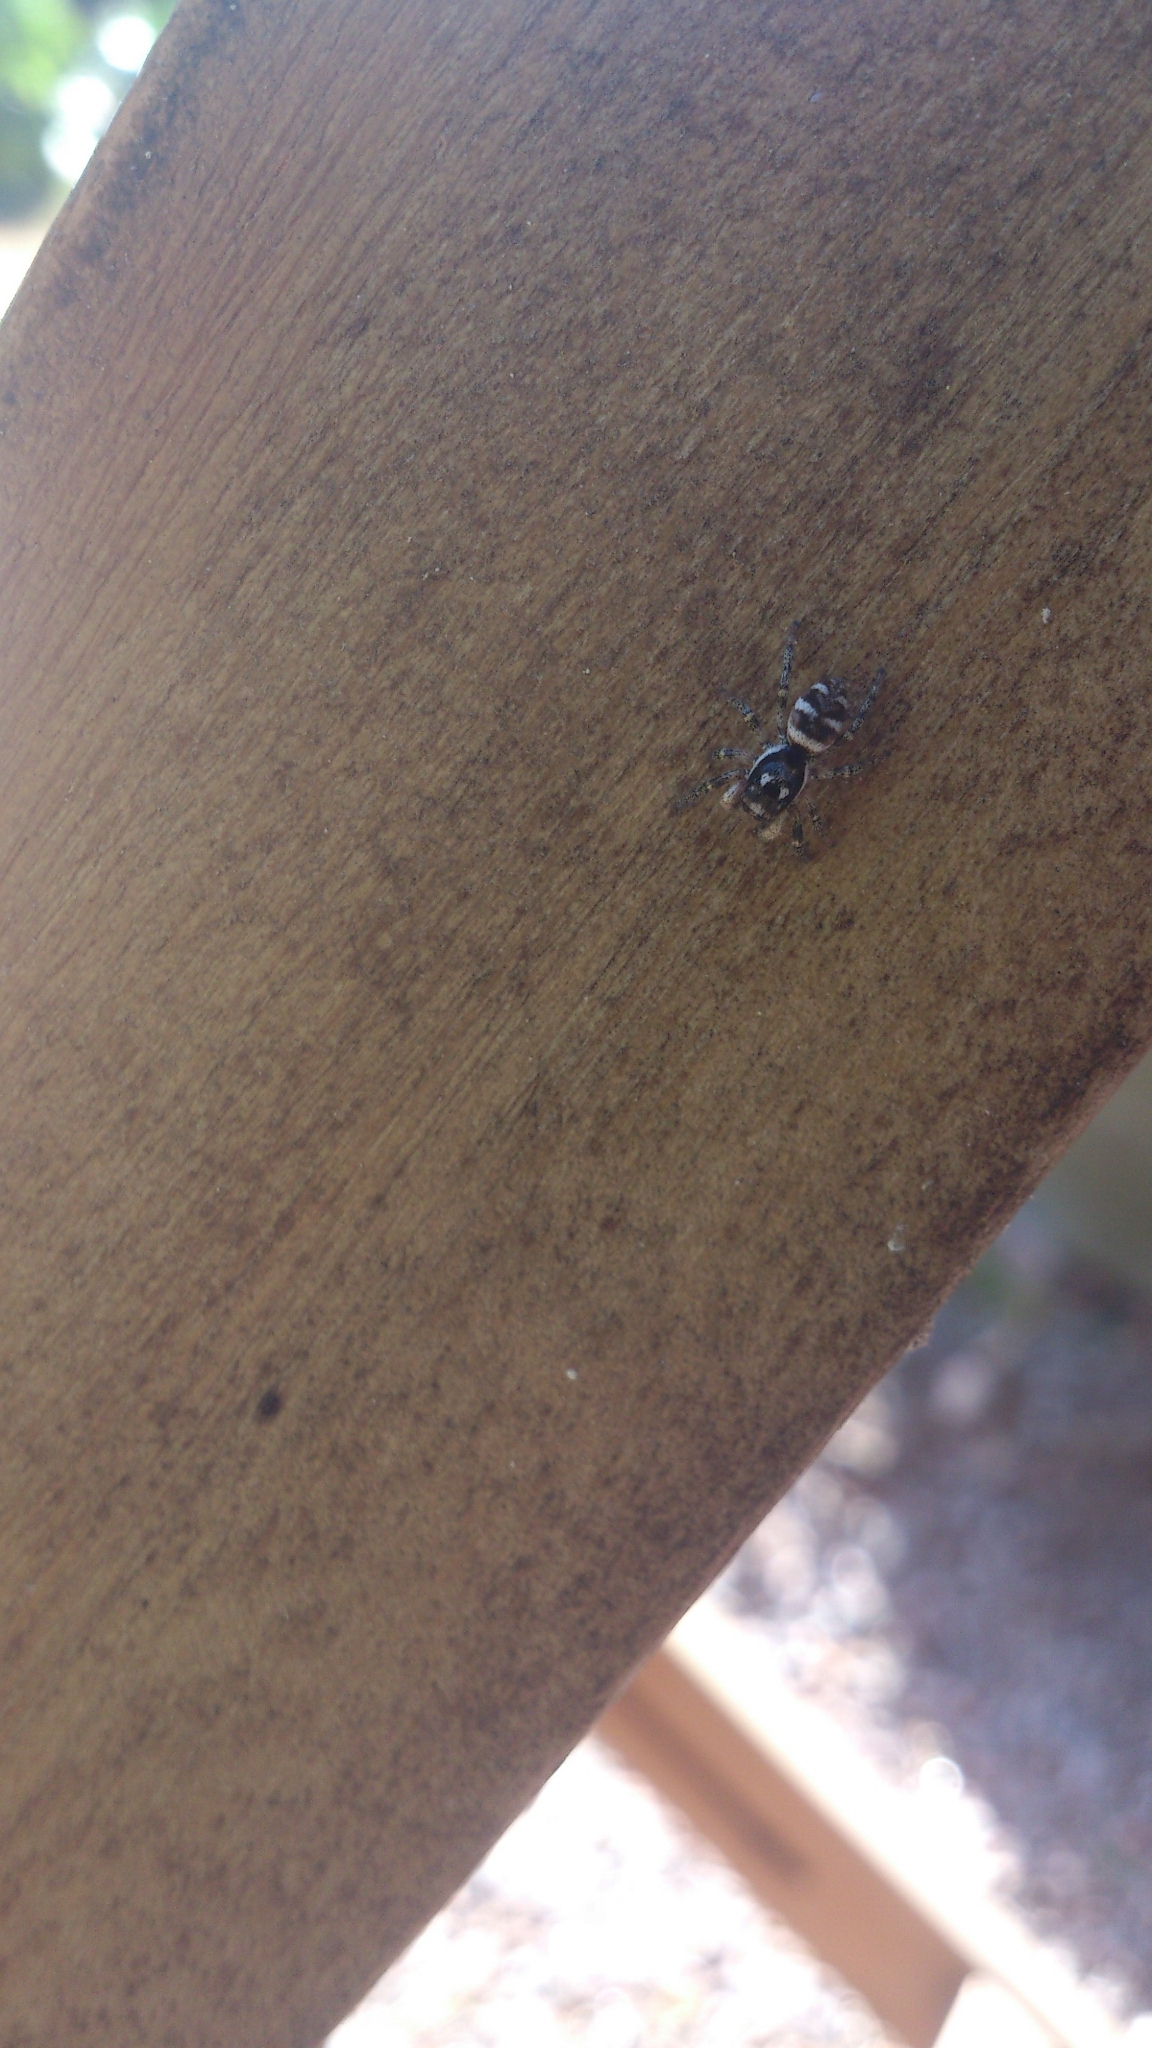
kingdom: Animalia
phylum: Arthropoda
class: Arachnida
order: Araneae
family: Salticidae
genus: Salticus
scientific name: Salticus scenicus
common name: Zebra jumper
